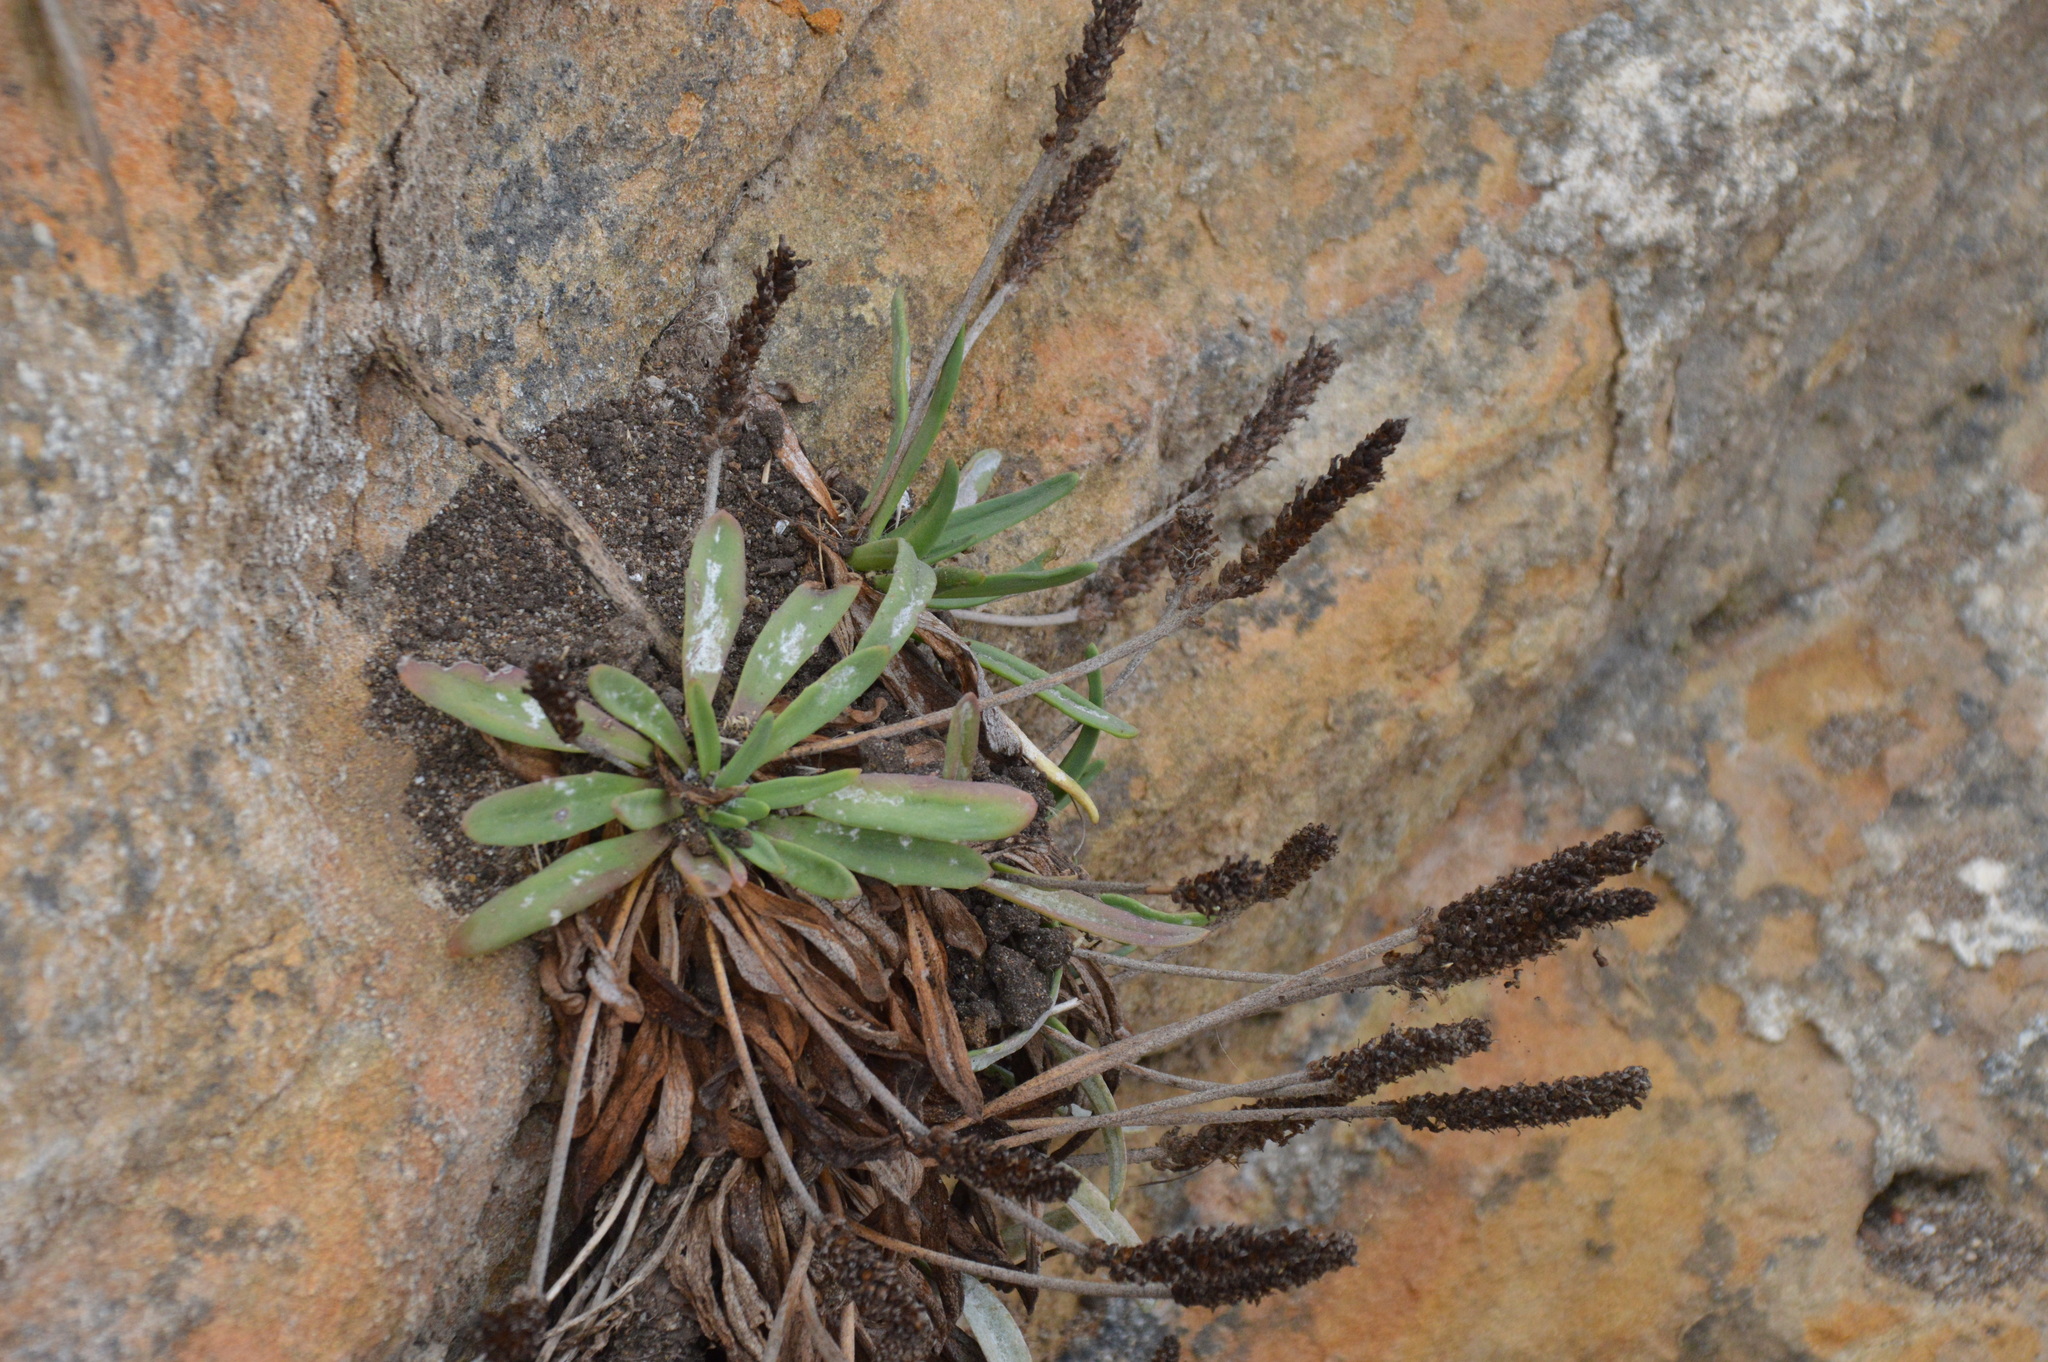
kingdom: Plantae
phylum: Tracheophyta
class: Magnoliopsida
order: Lamiales
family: Plantaginaceae
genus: Plantago
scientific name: Plantago maritima
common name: Sea plantain
